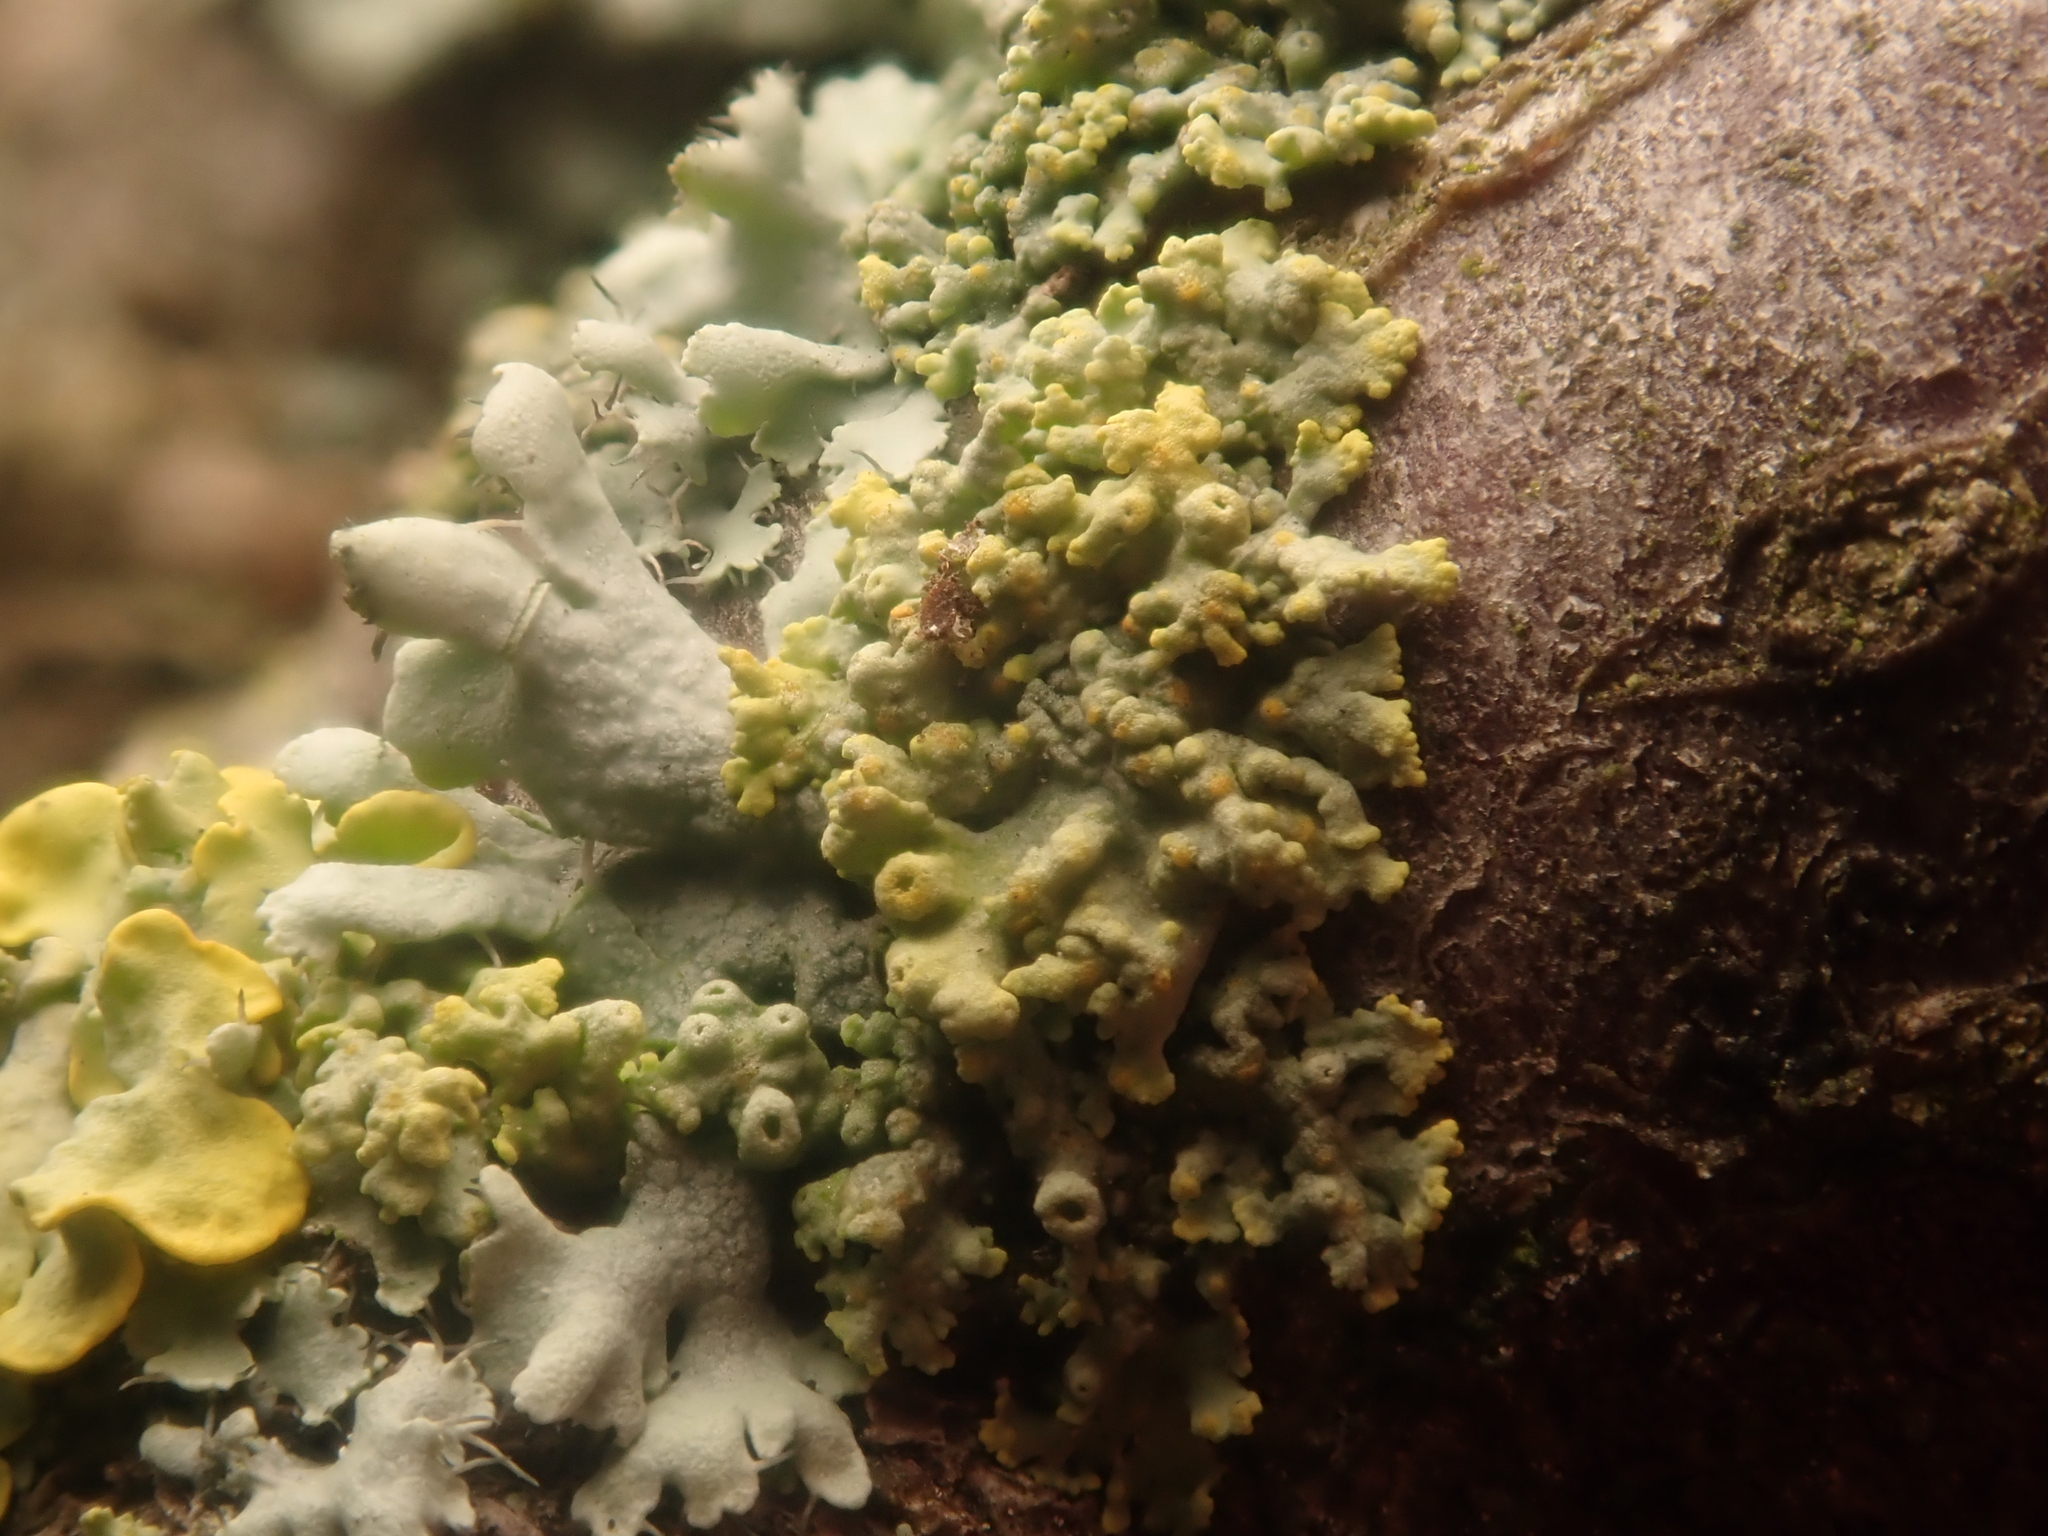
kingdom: Fungi
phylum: Ascomycota
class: Lecanoromycetes
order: Teloschistales
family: Teloschistaceae
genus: Polycauliona
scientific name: Polycauliona polycarpa
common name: Pin-cushion sunburst lichen
